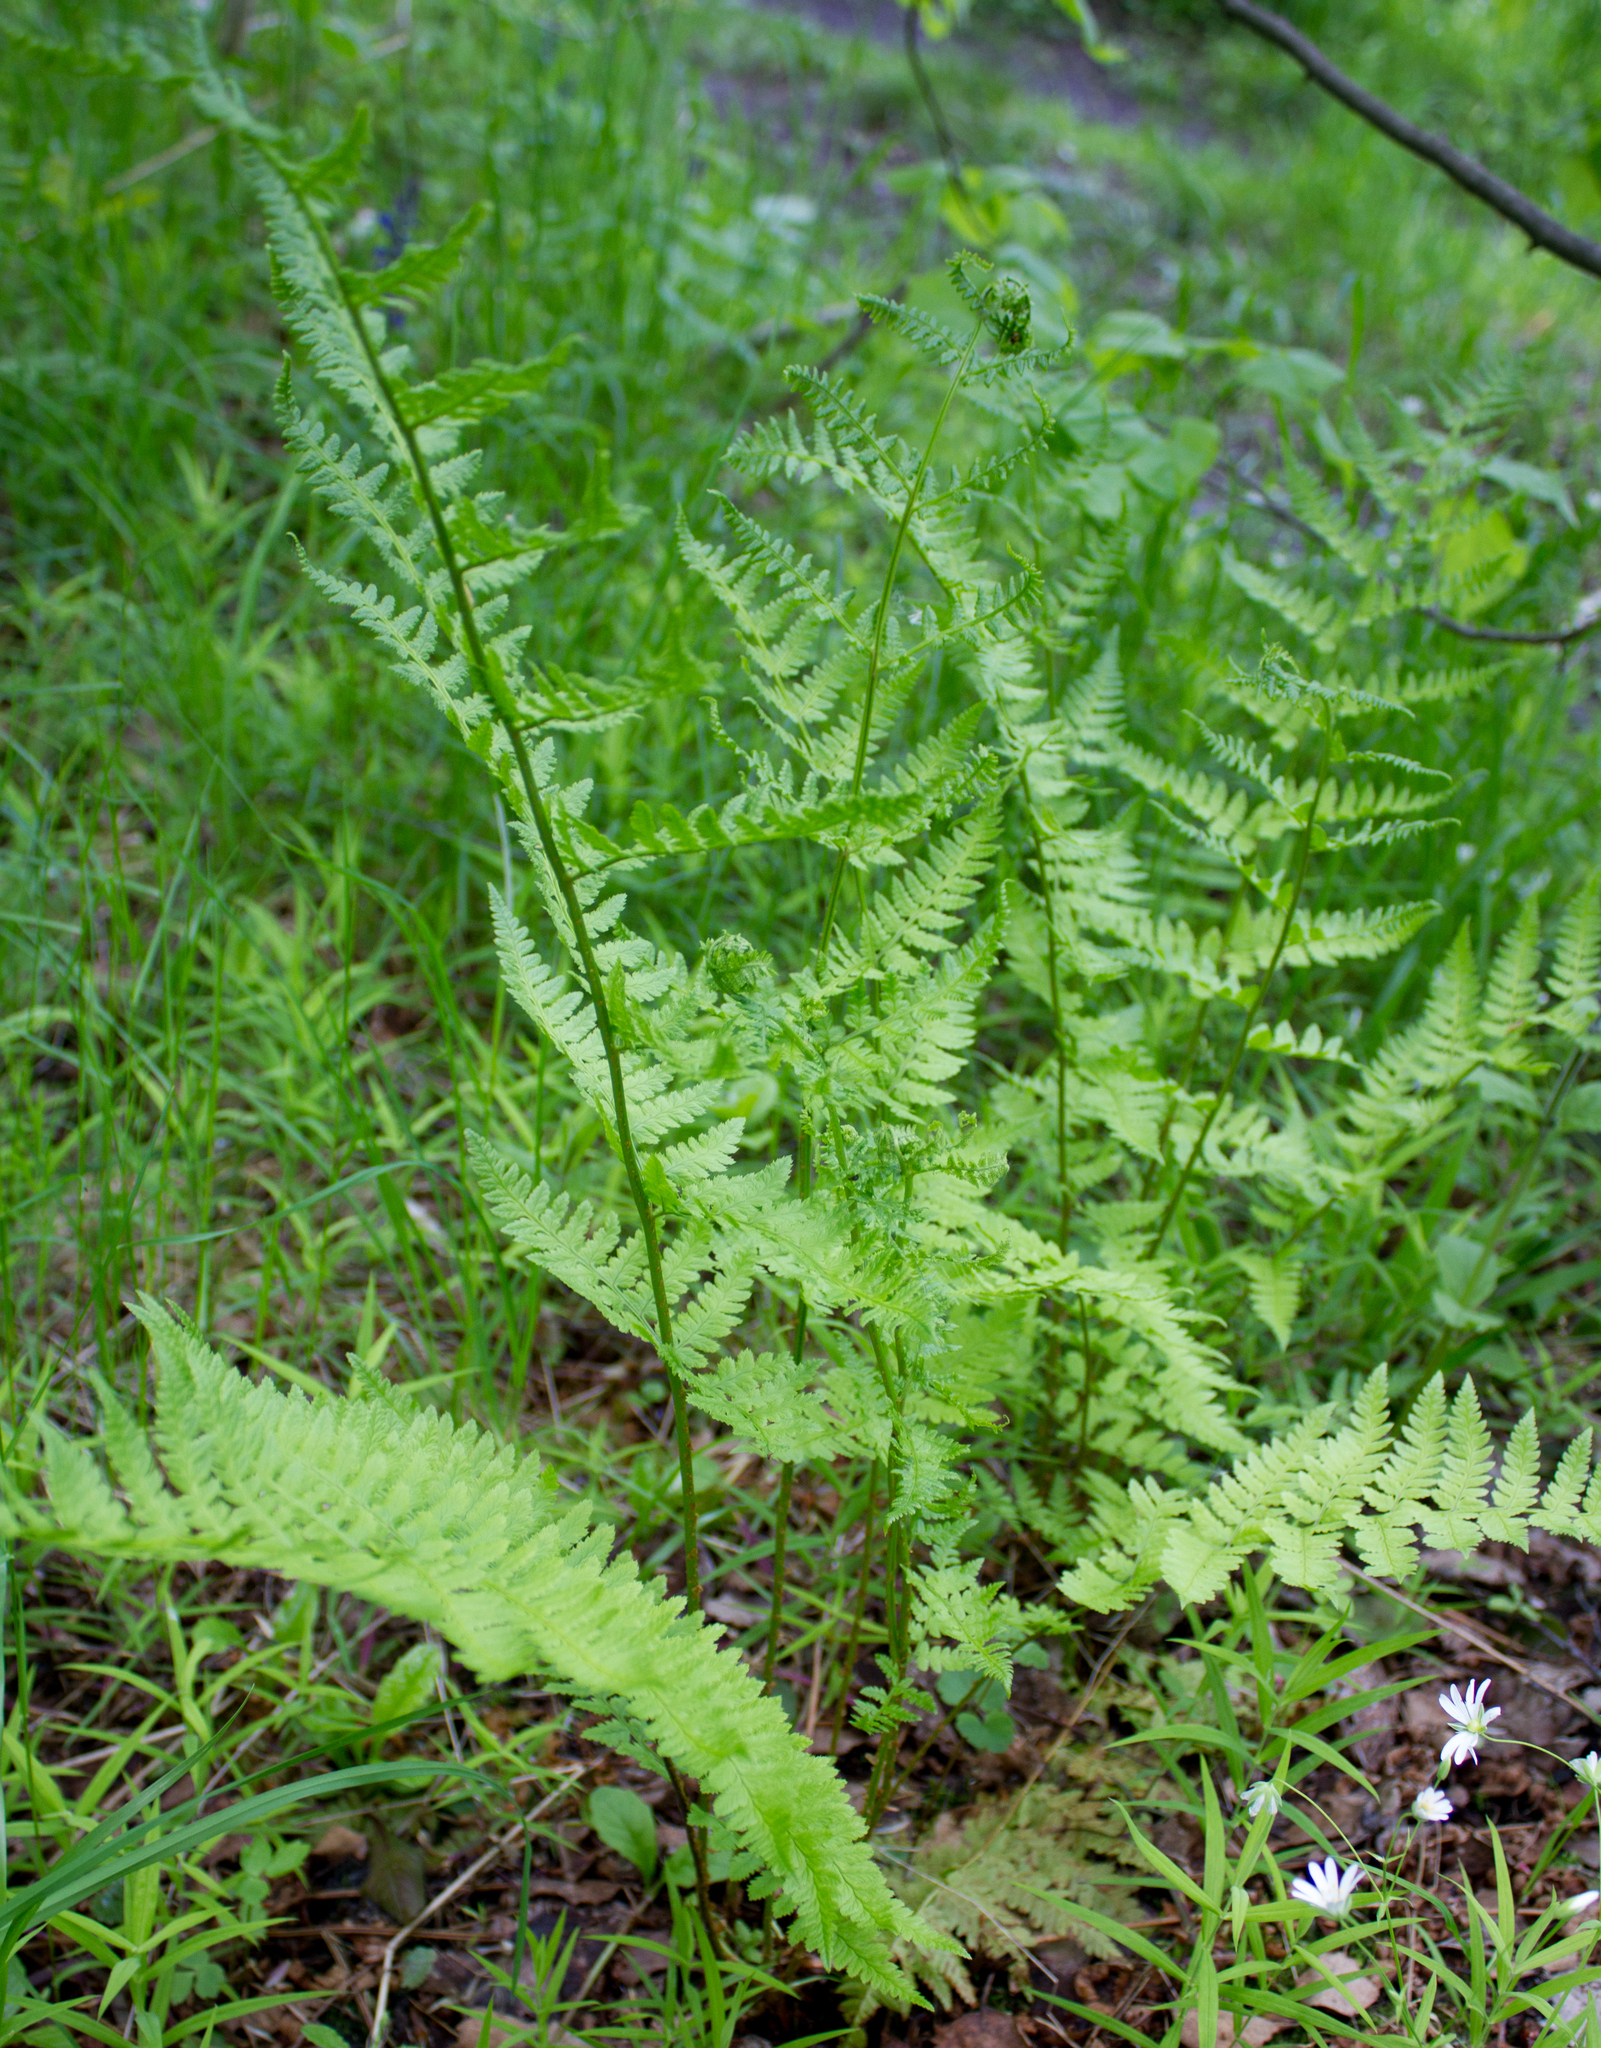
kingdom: Plantae
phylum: Tracheophyta
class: Polypodiopsida
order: Polypodiales
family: Dryopteridaceae
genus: Dryopteris
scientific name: Dryopteris carthusiana
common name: Narrow buckler-fern
